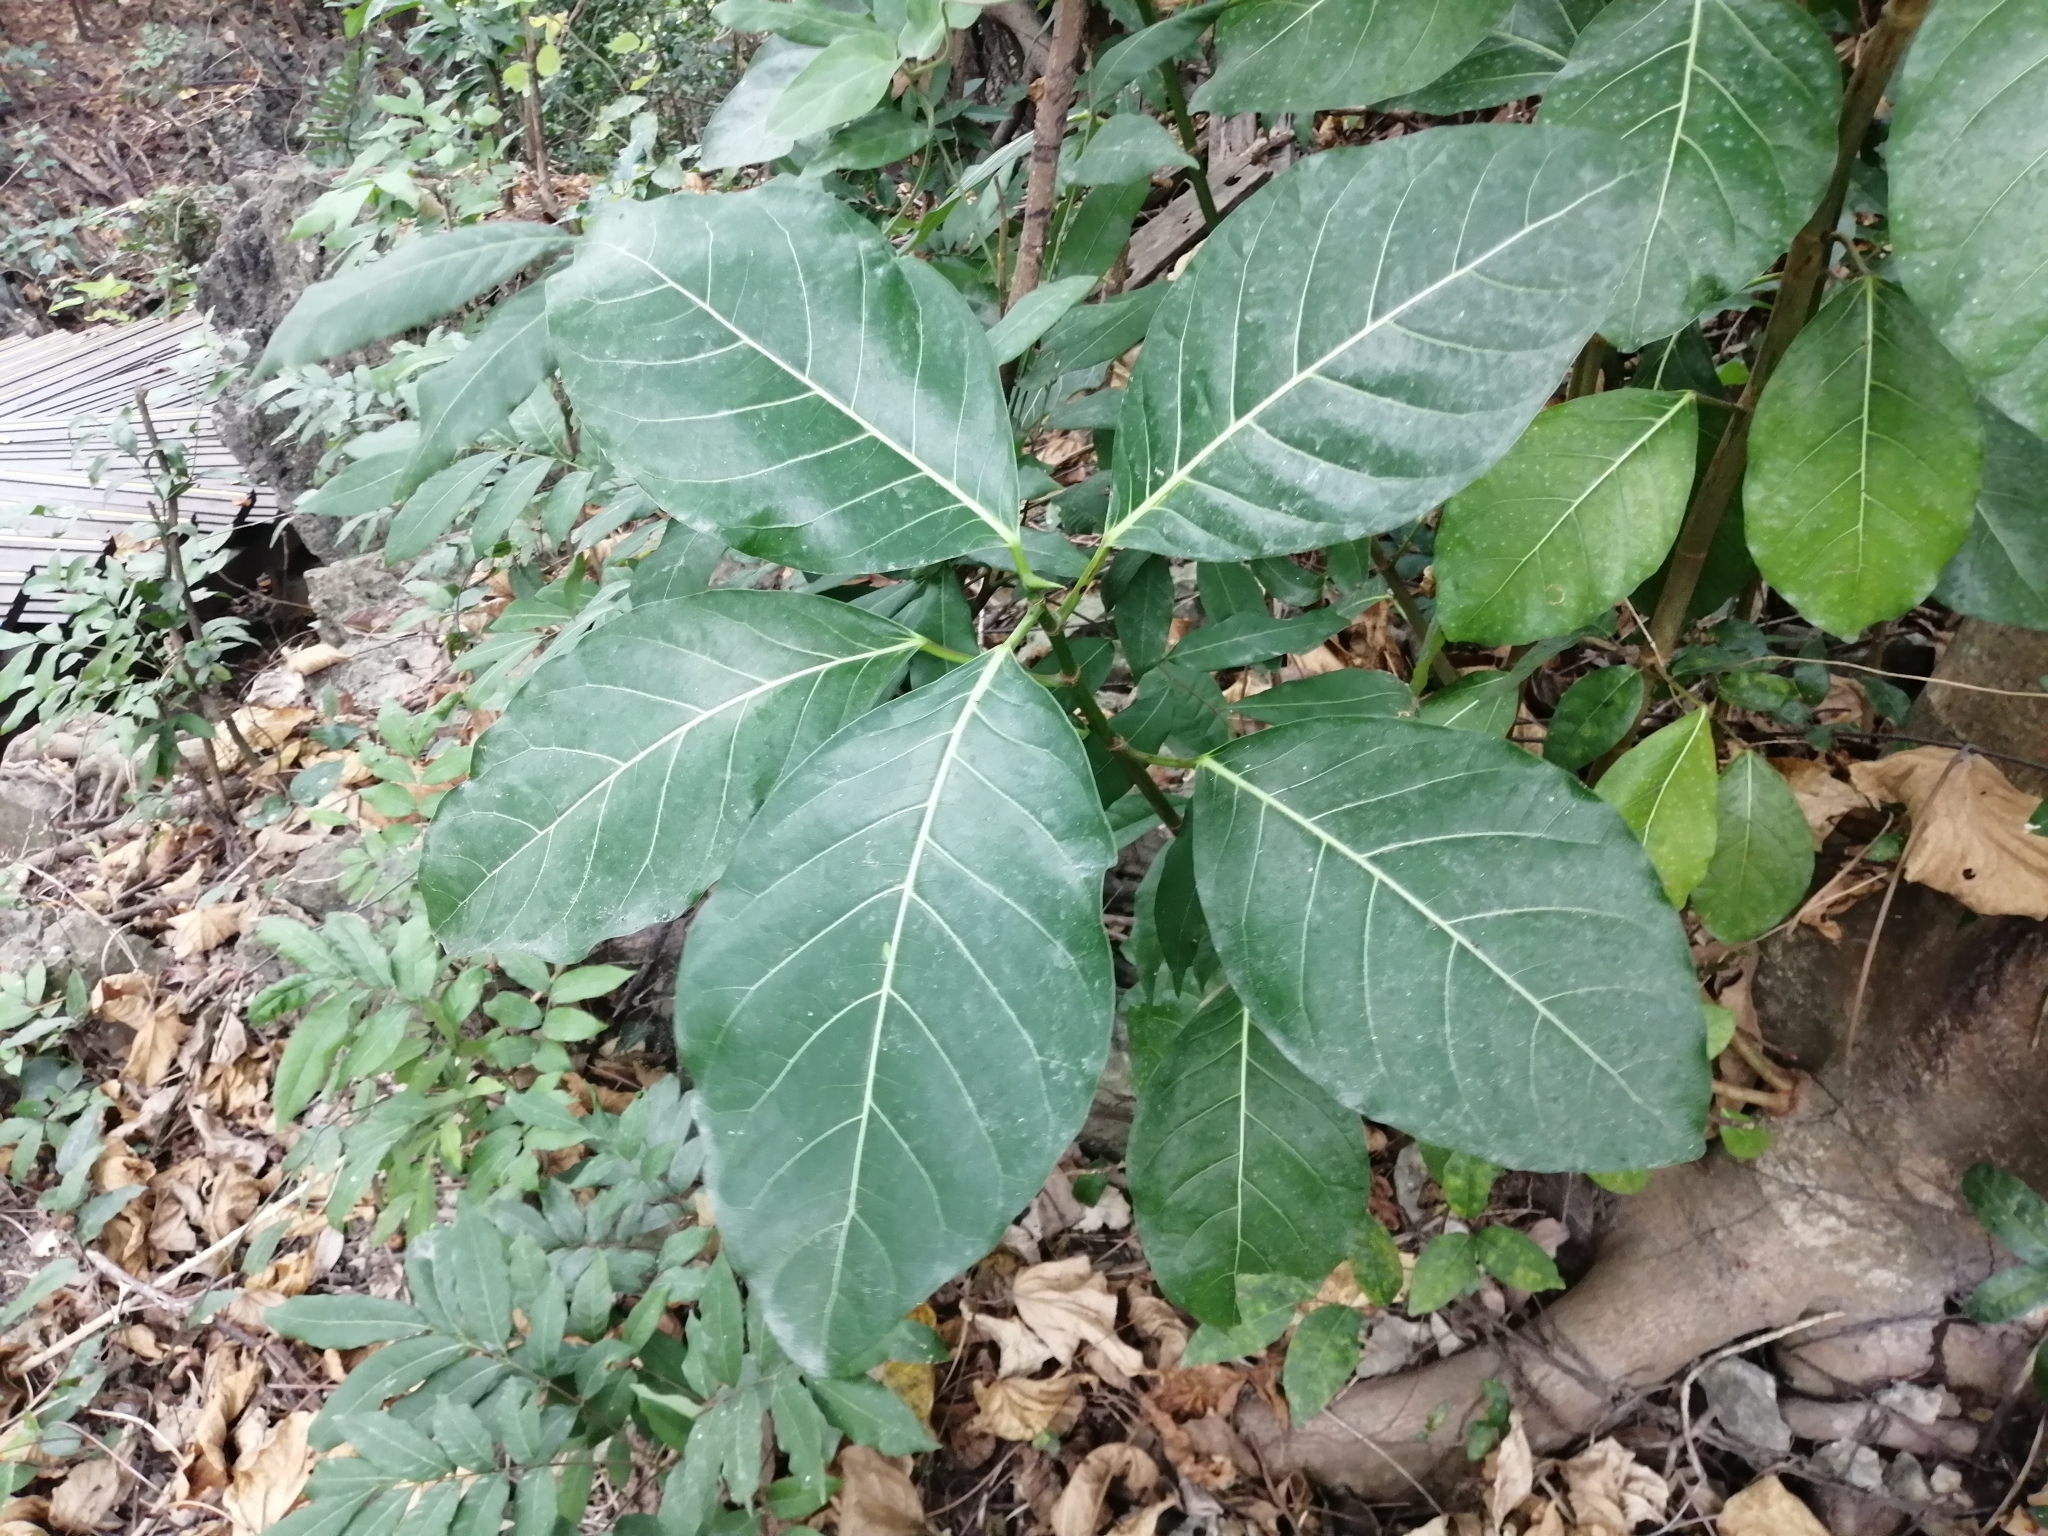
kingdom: Plantae
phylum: Tracheophyta
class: Magnoliopsida
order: Rosales
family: Moraceae
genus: Ficus
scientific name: Ficus septica
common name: Septic fig
